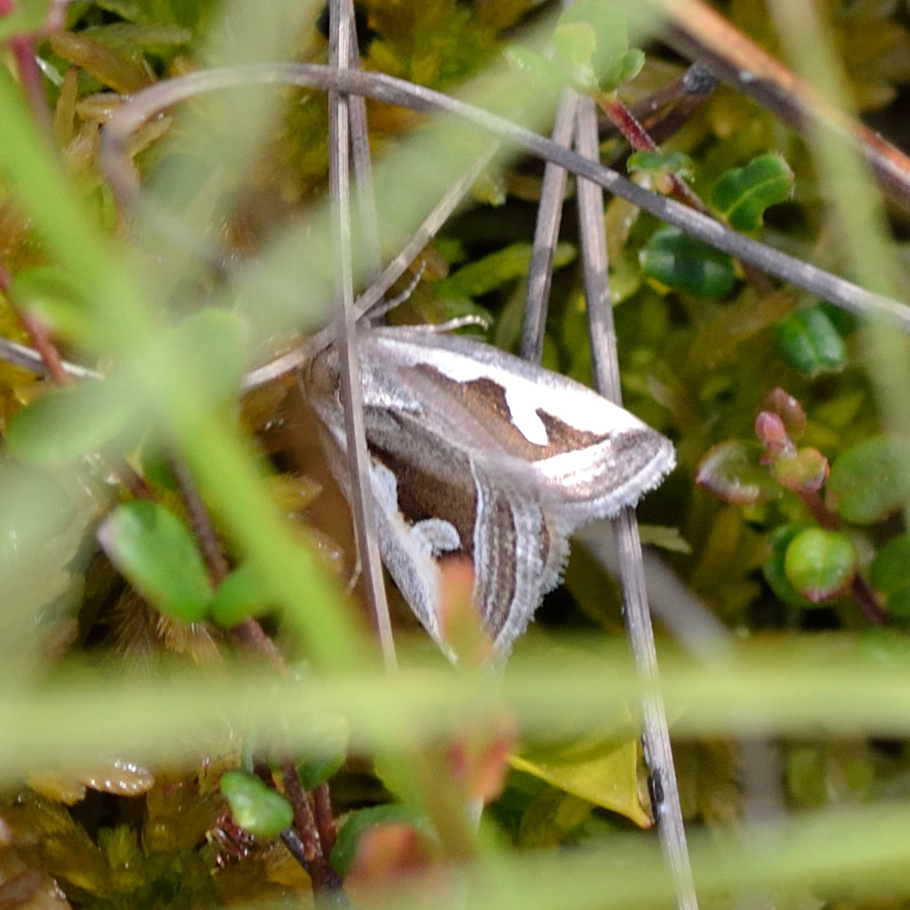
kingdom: Animalia
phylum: Arthropoda
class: Insecta
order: Lepidoptera
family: Noctuidae
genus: Deltote
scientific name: Deltote uncula
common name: Silver hook
